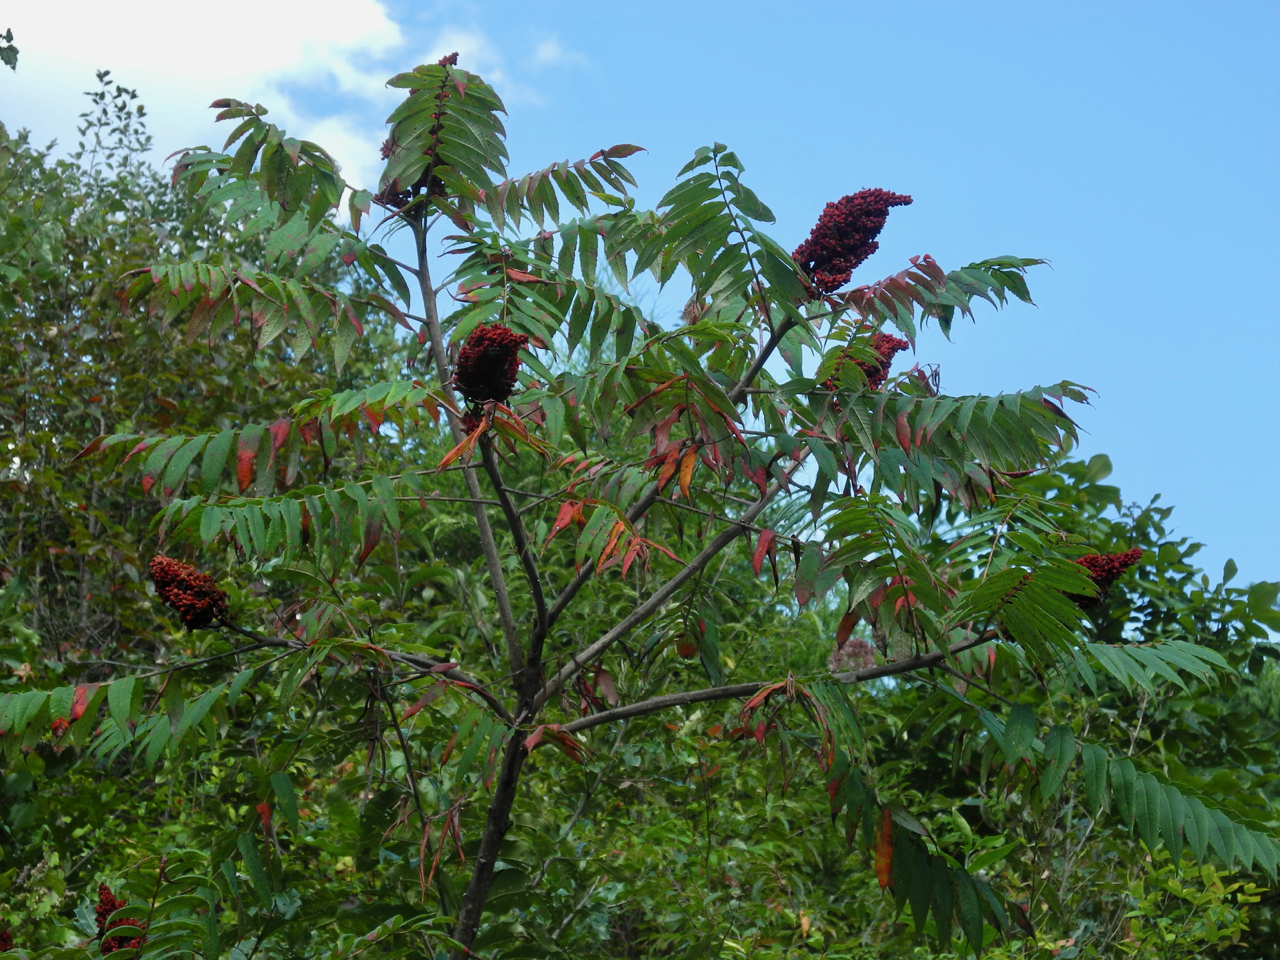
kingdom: Plantae
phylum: Tracheophyta
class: Magnoliopsida
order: Sapindales
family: Anacardiaceae
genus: Rhus
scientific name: Rhus glabra
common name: Scarlet sumac
